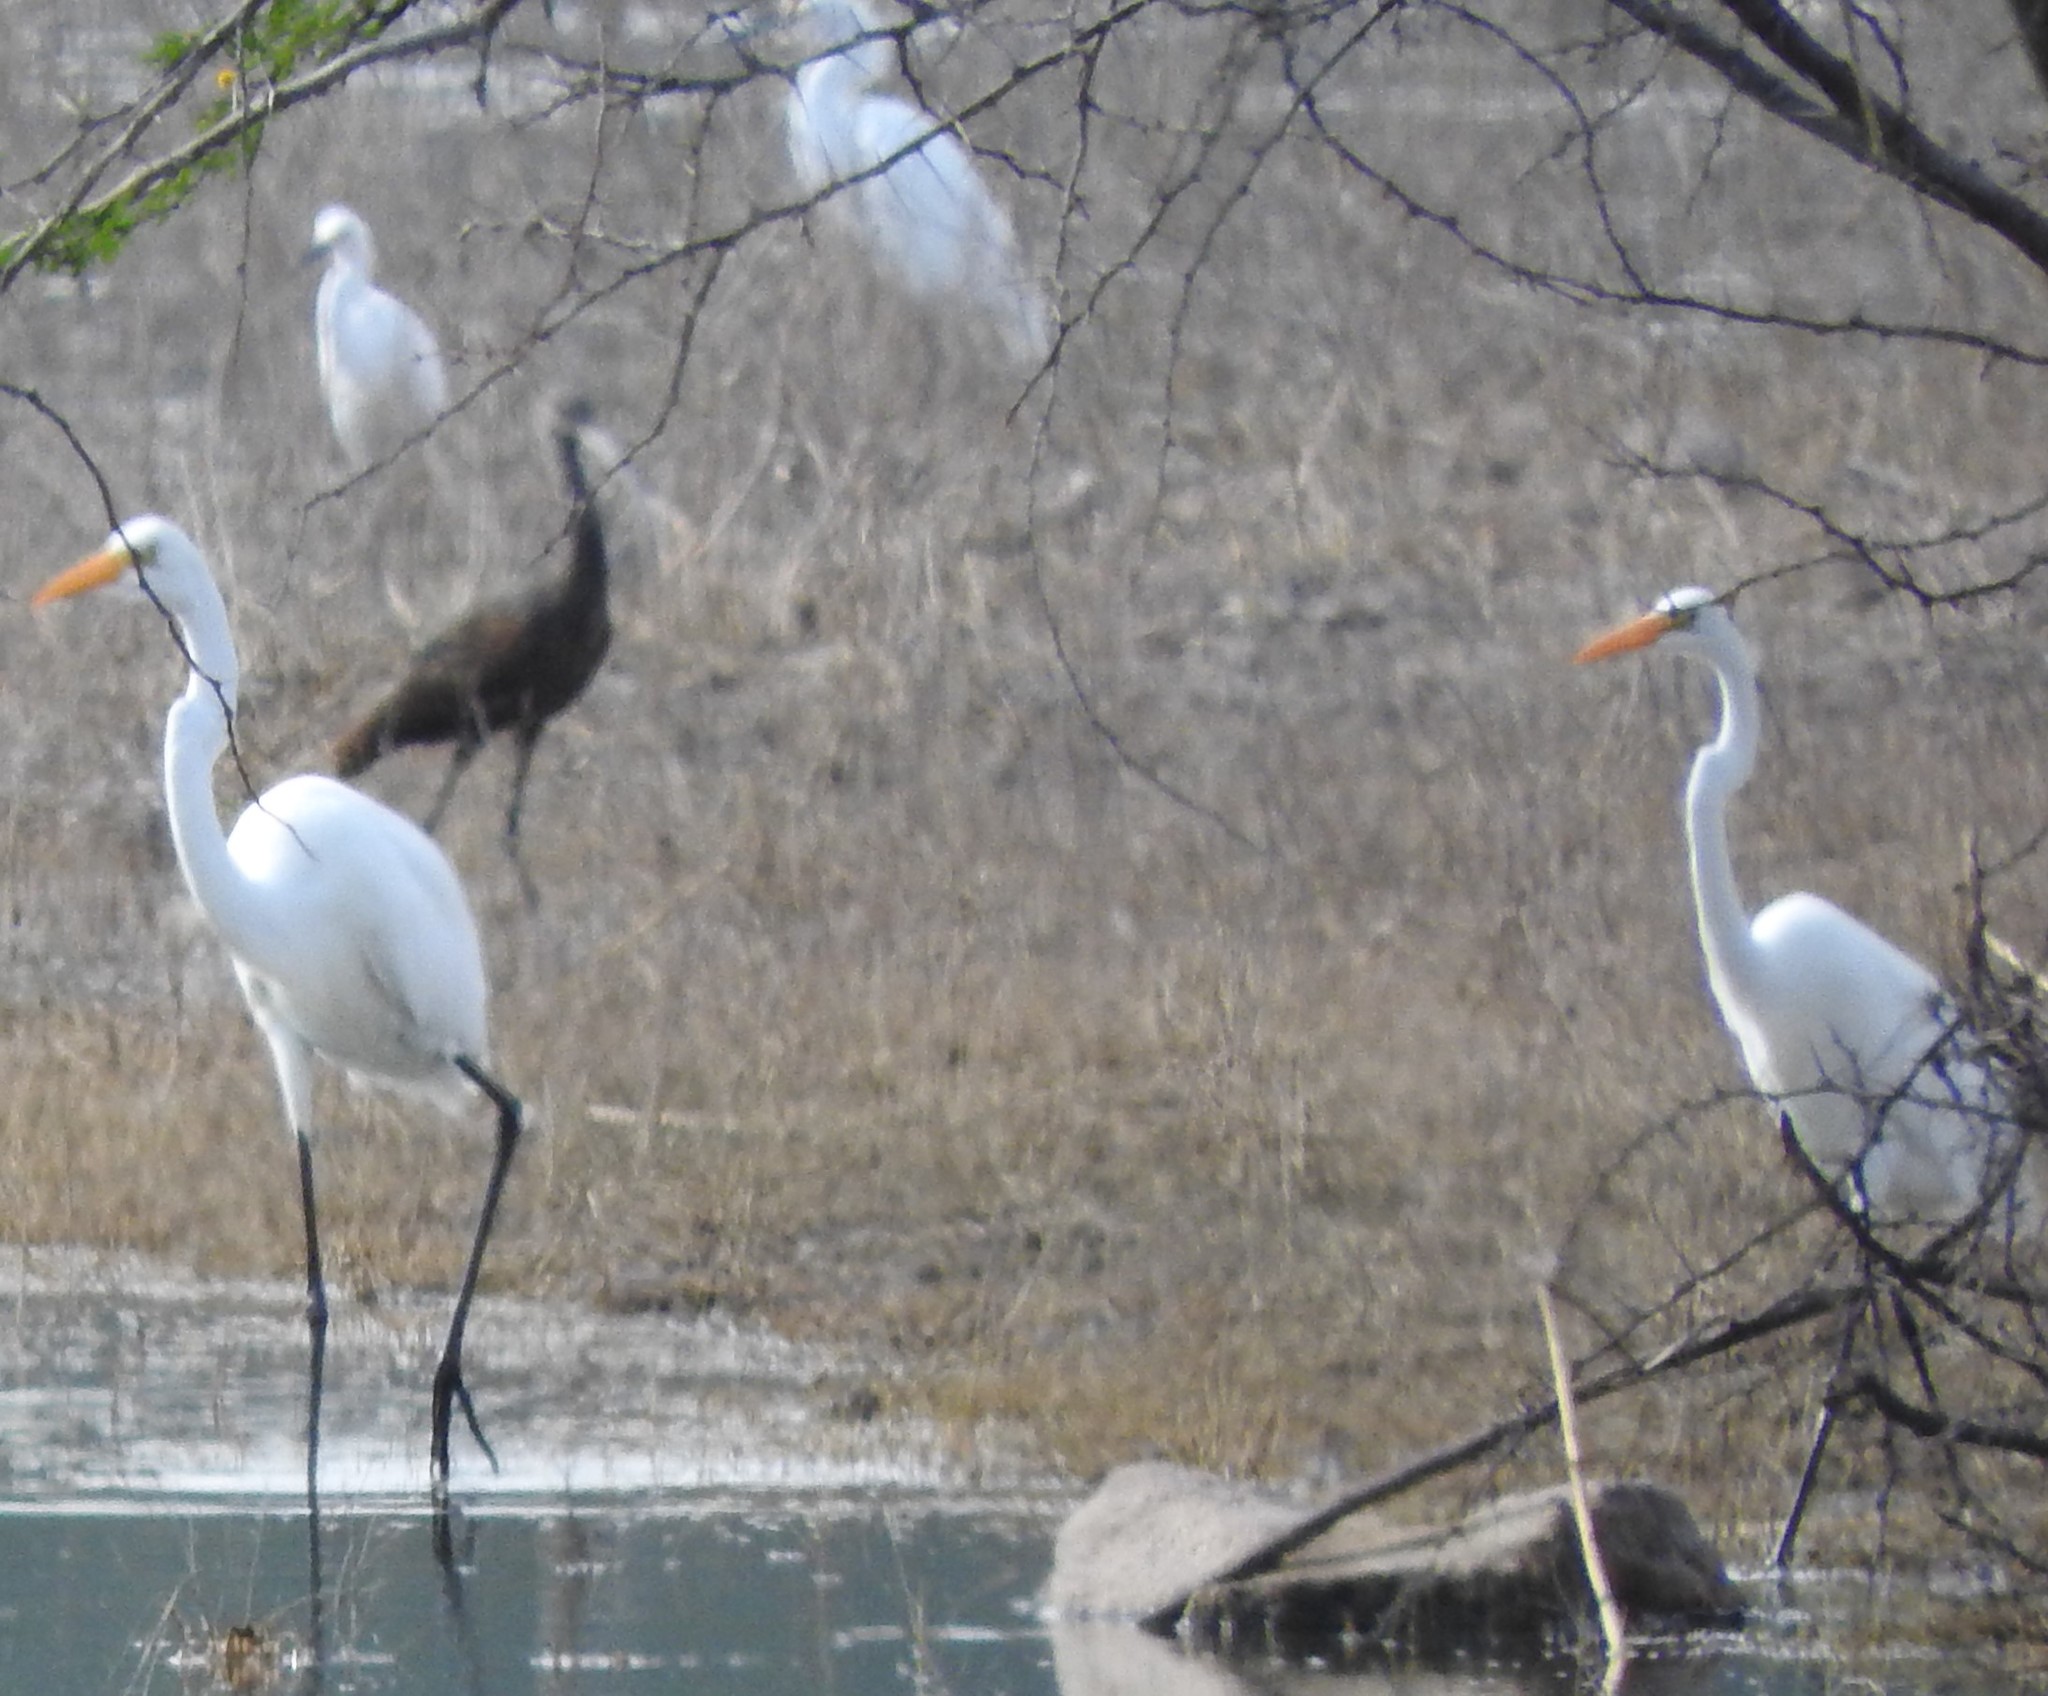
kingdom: Animalia
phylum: Chordata
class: Aves
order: Pelecaniformes
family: Threskiornithidae
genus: Plegadis
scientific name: Plegadis chihi
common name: White-faced ibis
